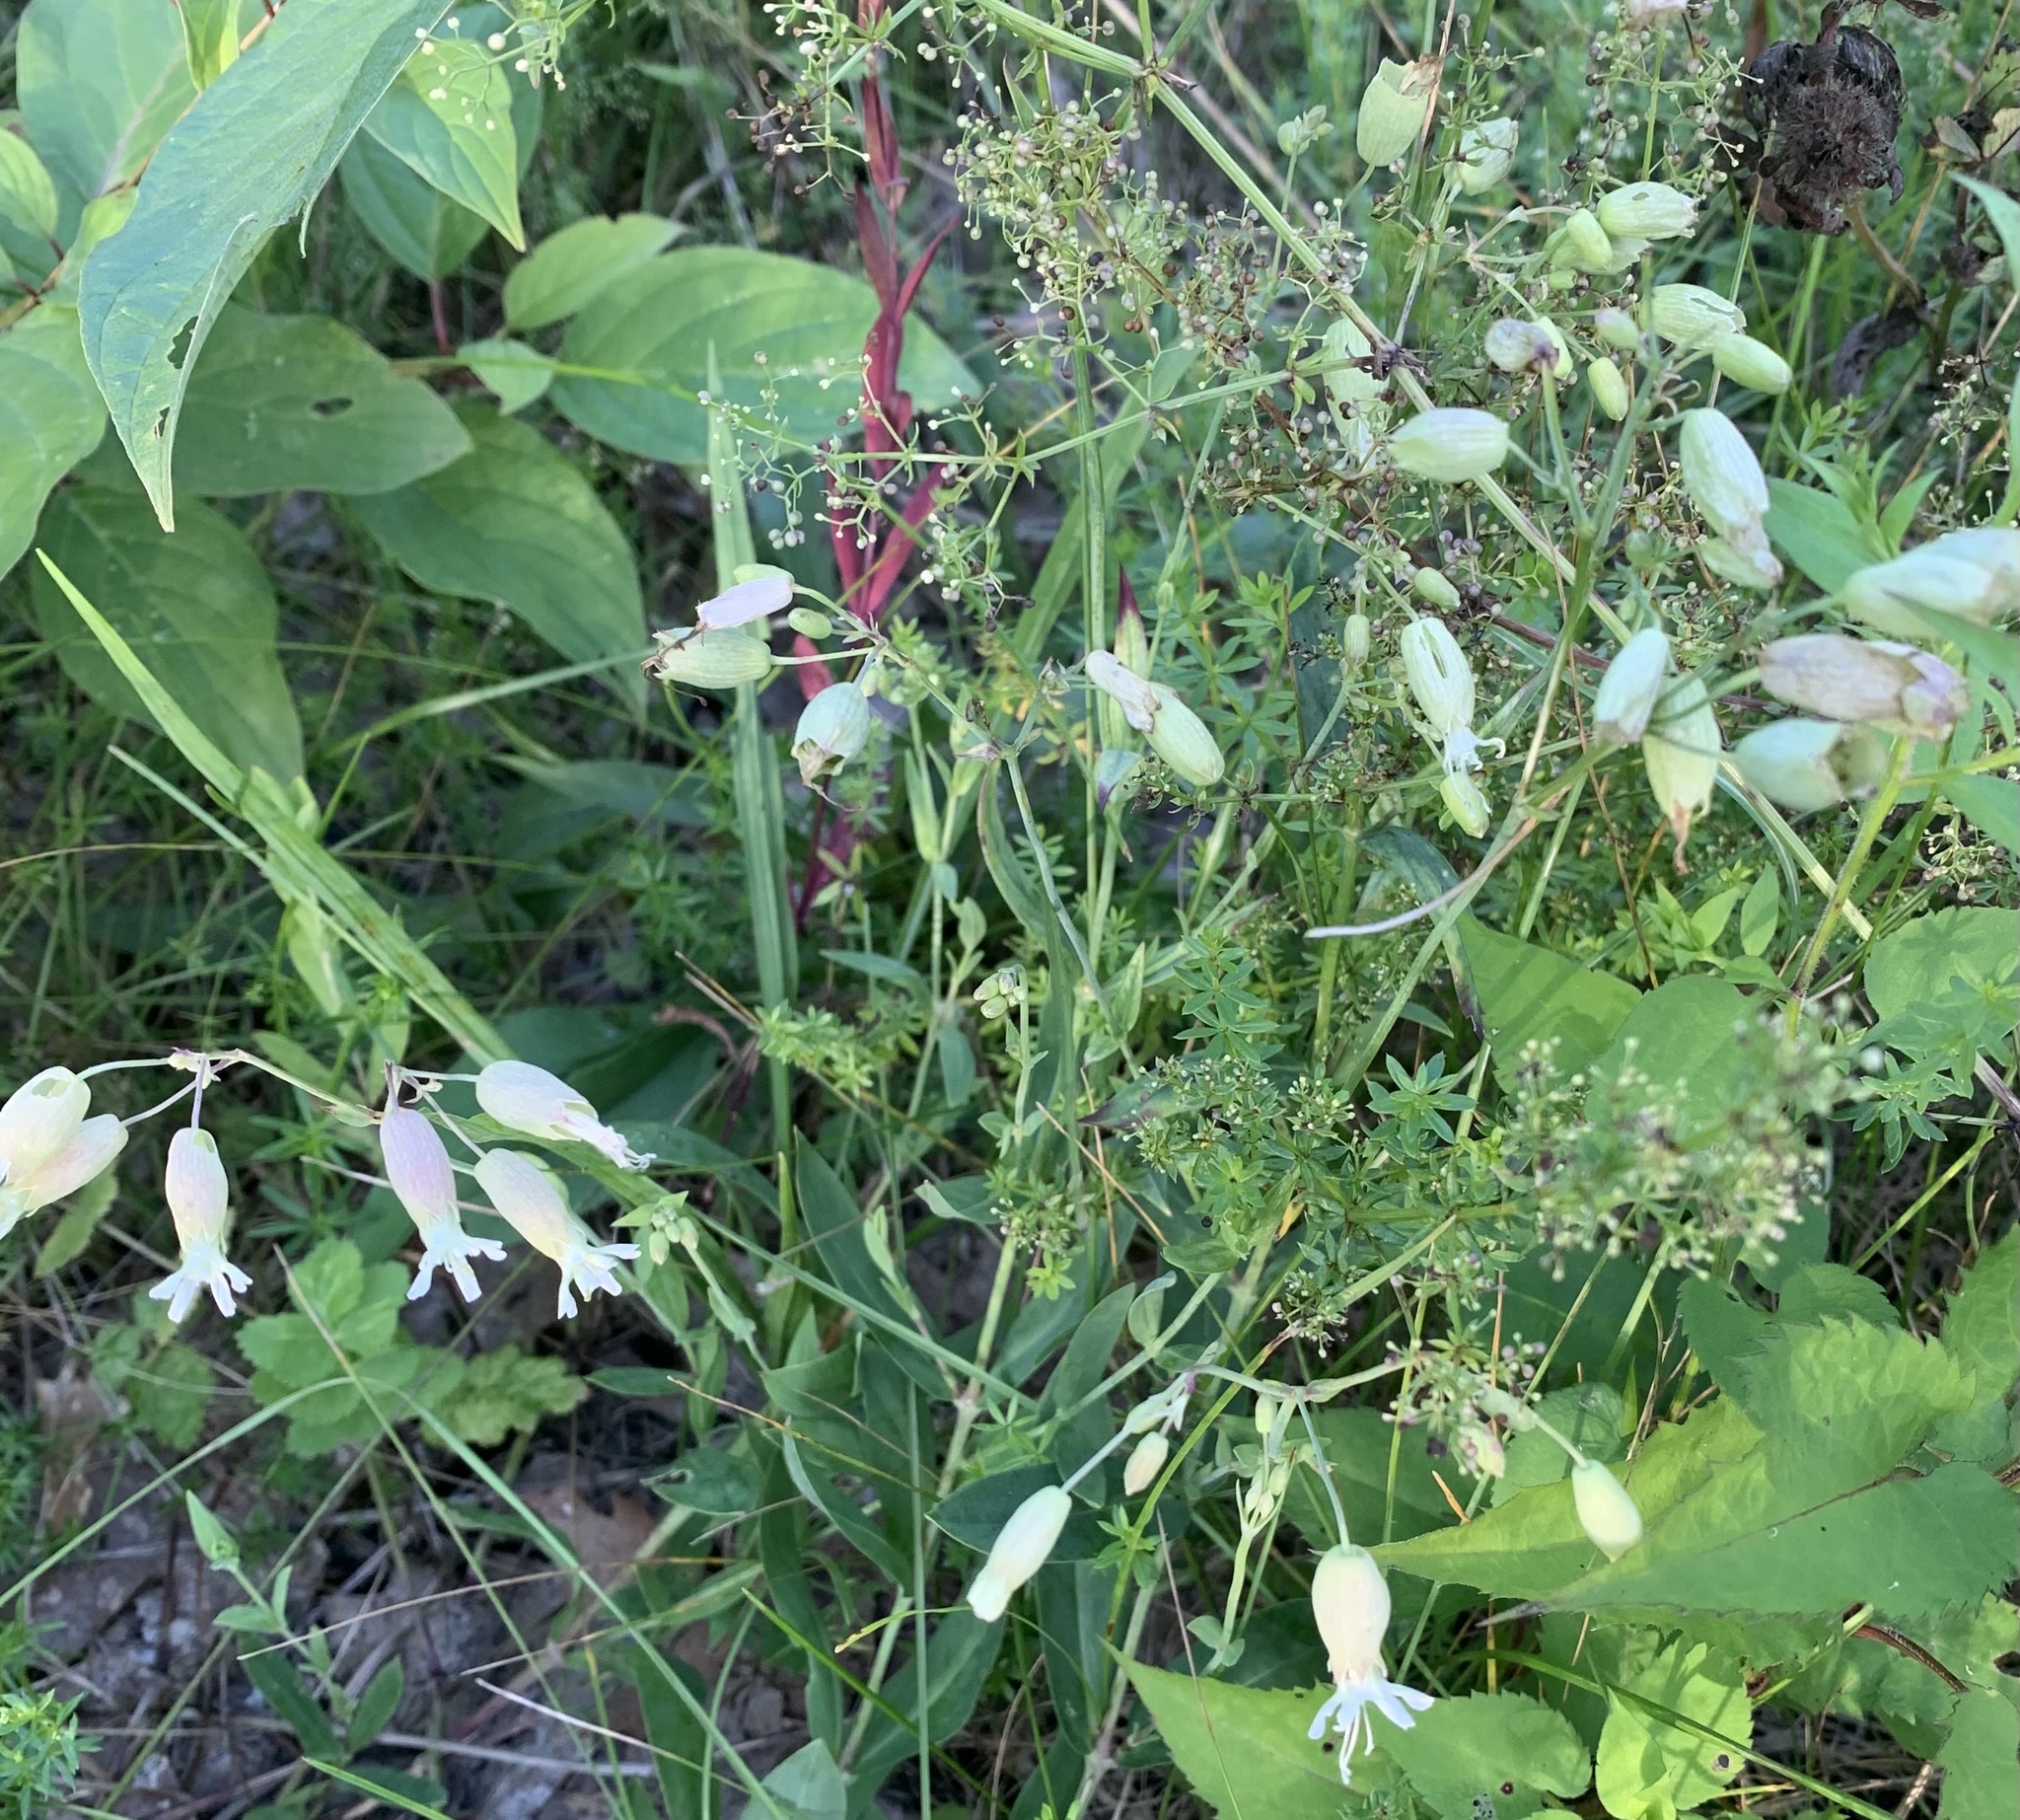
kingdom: Plantae
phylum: Tracheophyta
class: Magnoliopsida
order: Caryophyllales
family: Caryophyllaceae
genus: Silene
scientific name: Silene vulgaris
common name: Bladder campion
